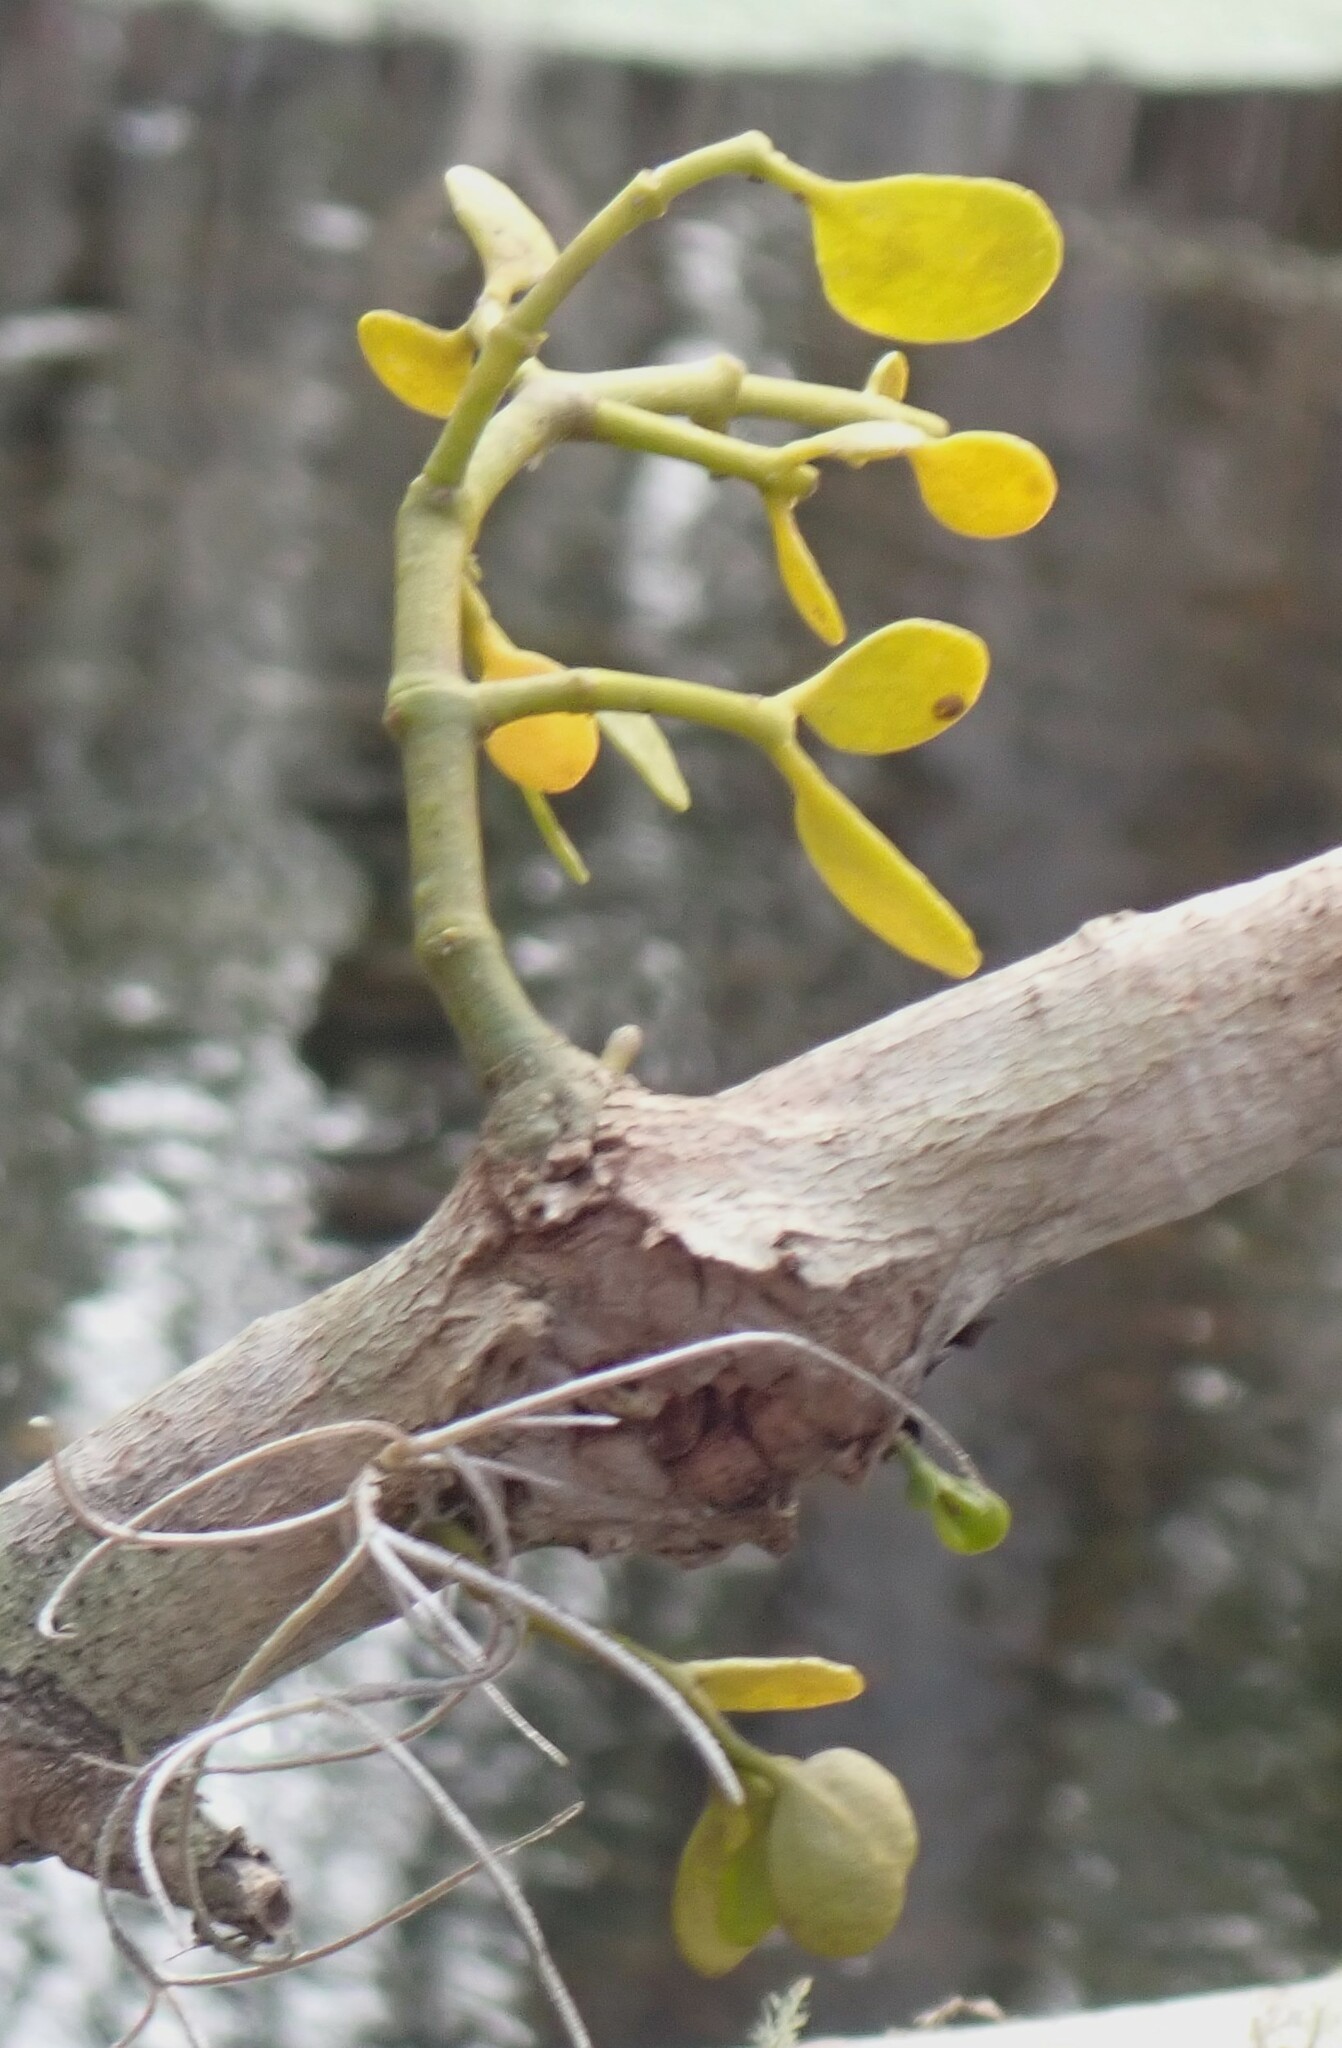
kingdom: Plantae
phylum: Tracheophyta
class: Magnoliopsida
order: Santalales
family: Viscaceae
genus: Phoradendron
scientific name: Phoradendron leucarpum
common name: Pacific mistletoe
